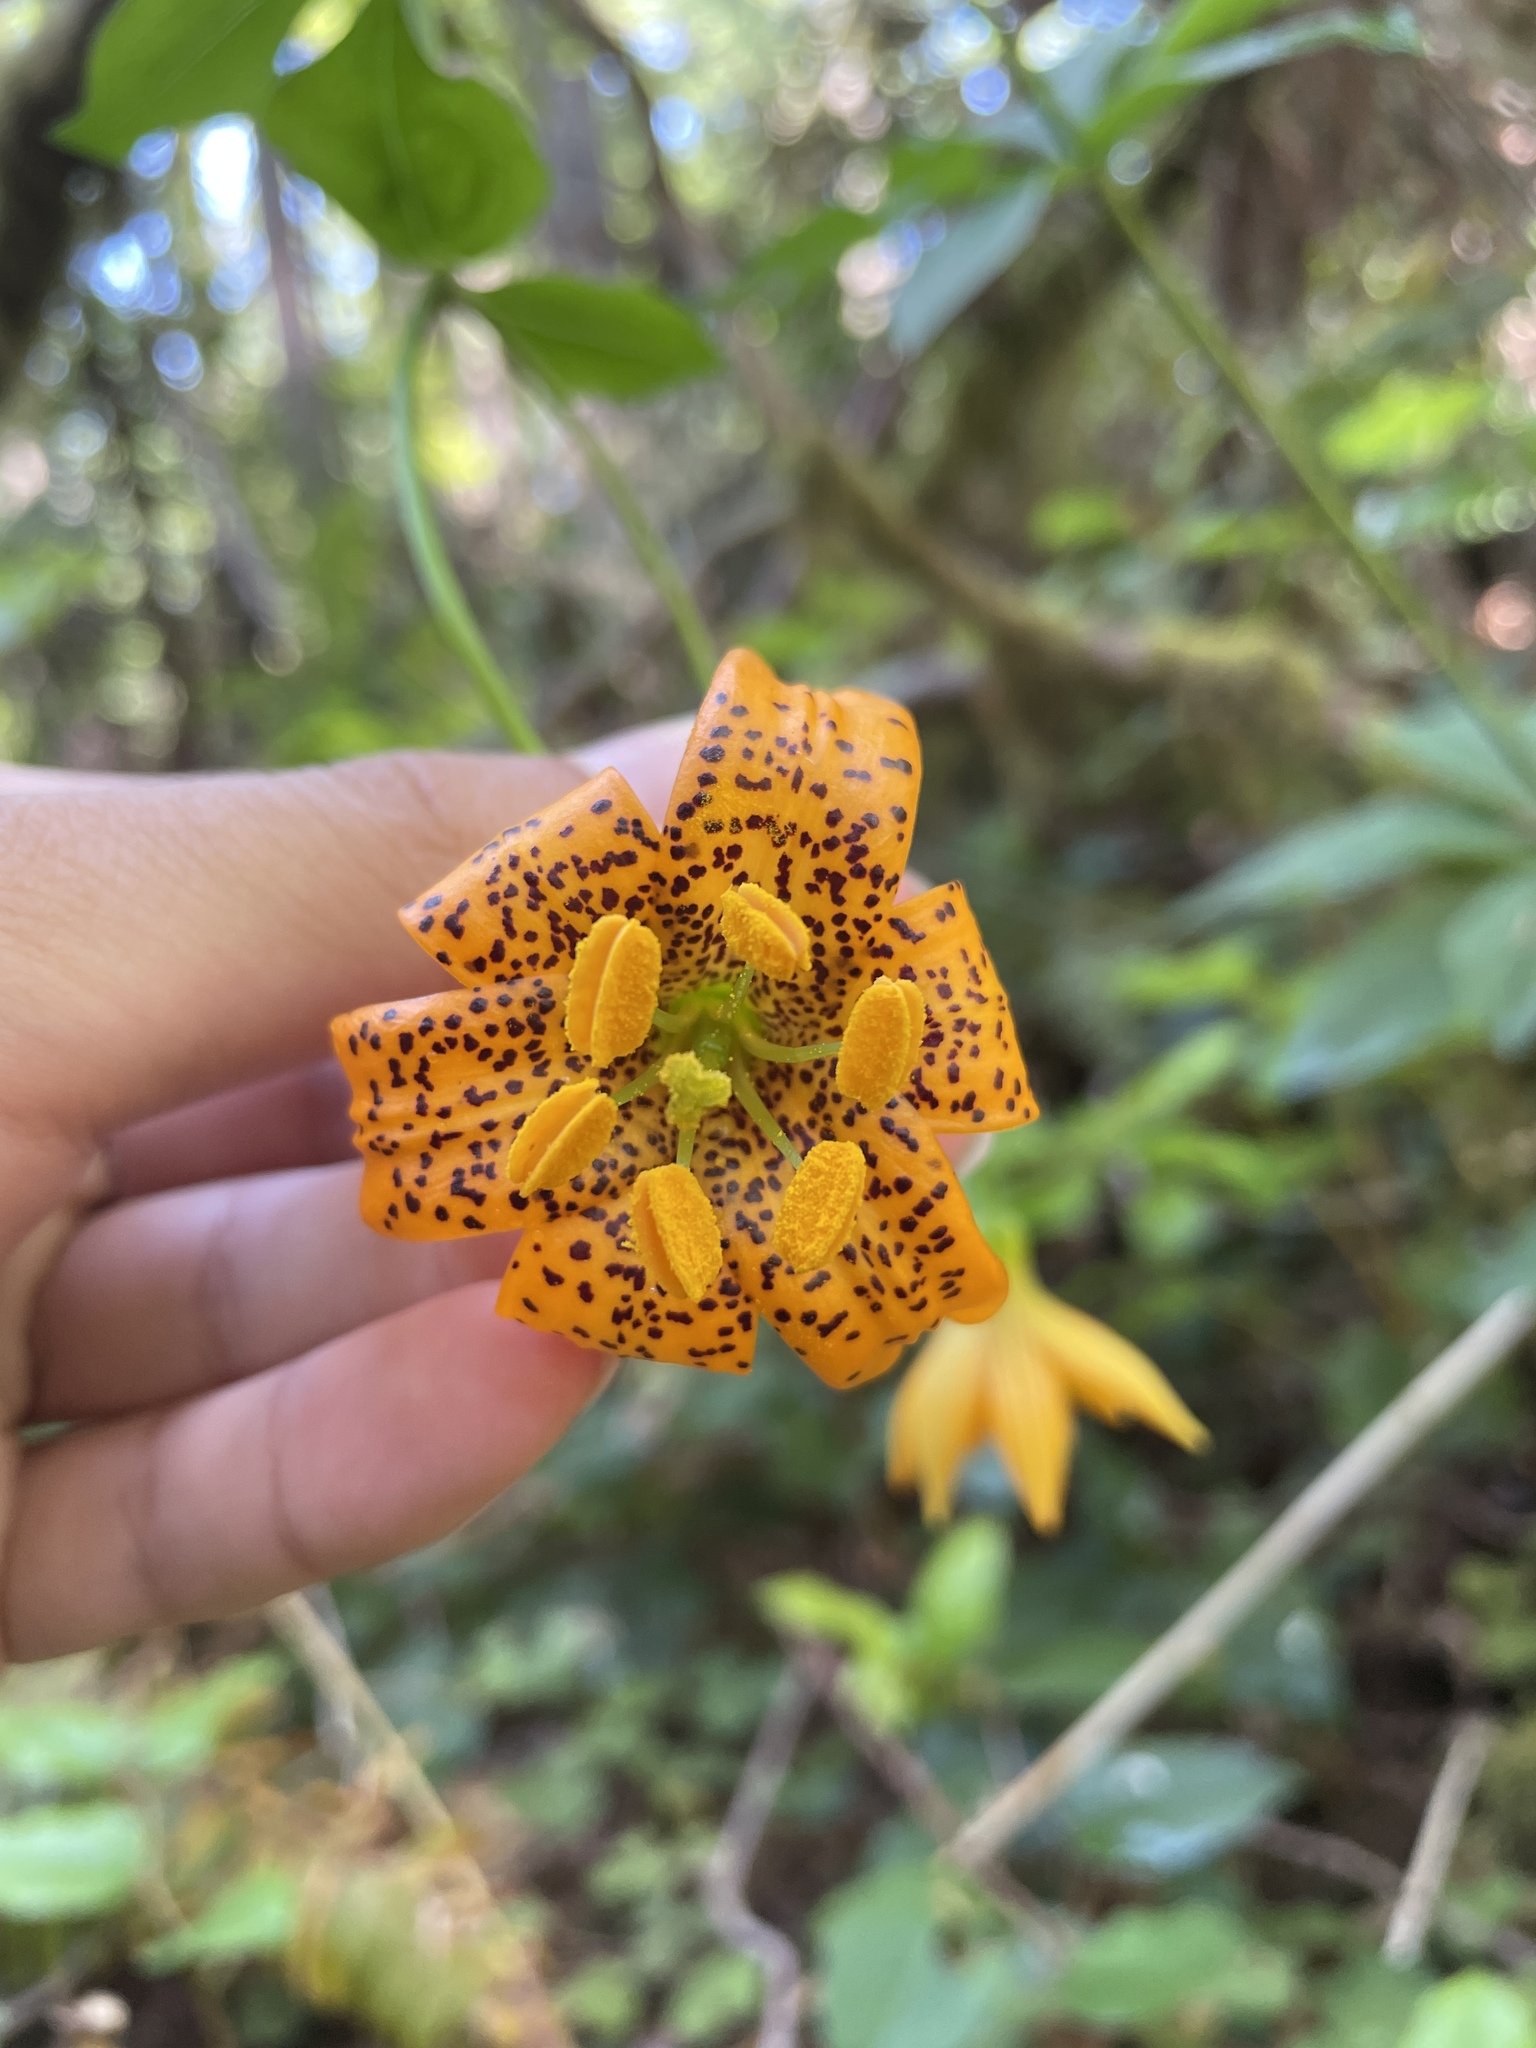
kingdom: Plantae
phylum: Tracheophyta
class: Liliopsida
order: Liliales
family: Liliaceae
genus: Lilium
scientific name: Lilium columbianum
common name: Columbia lily
